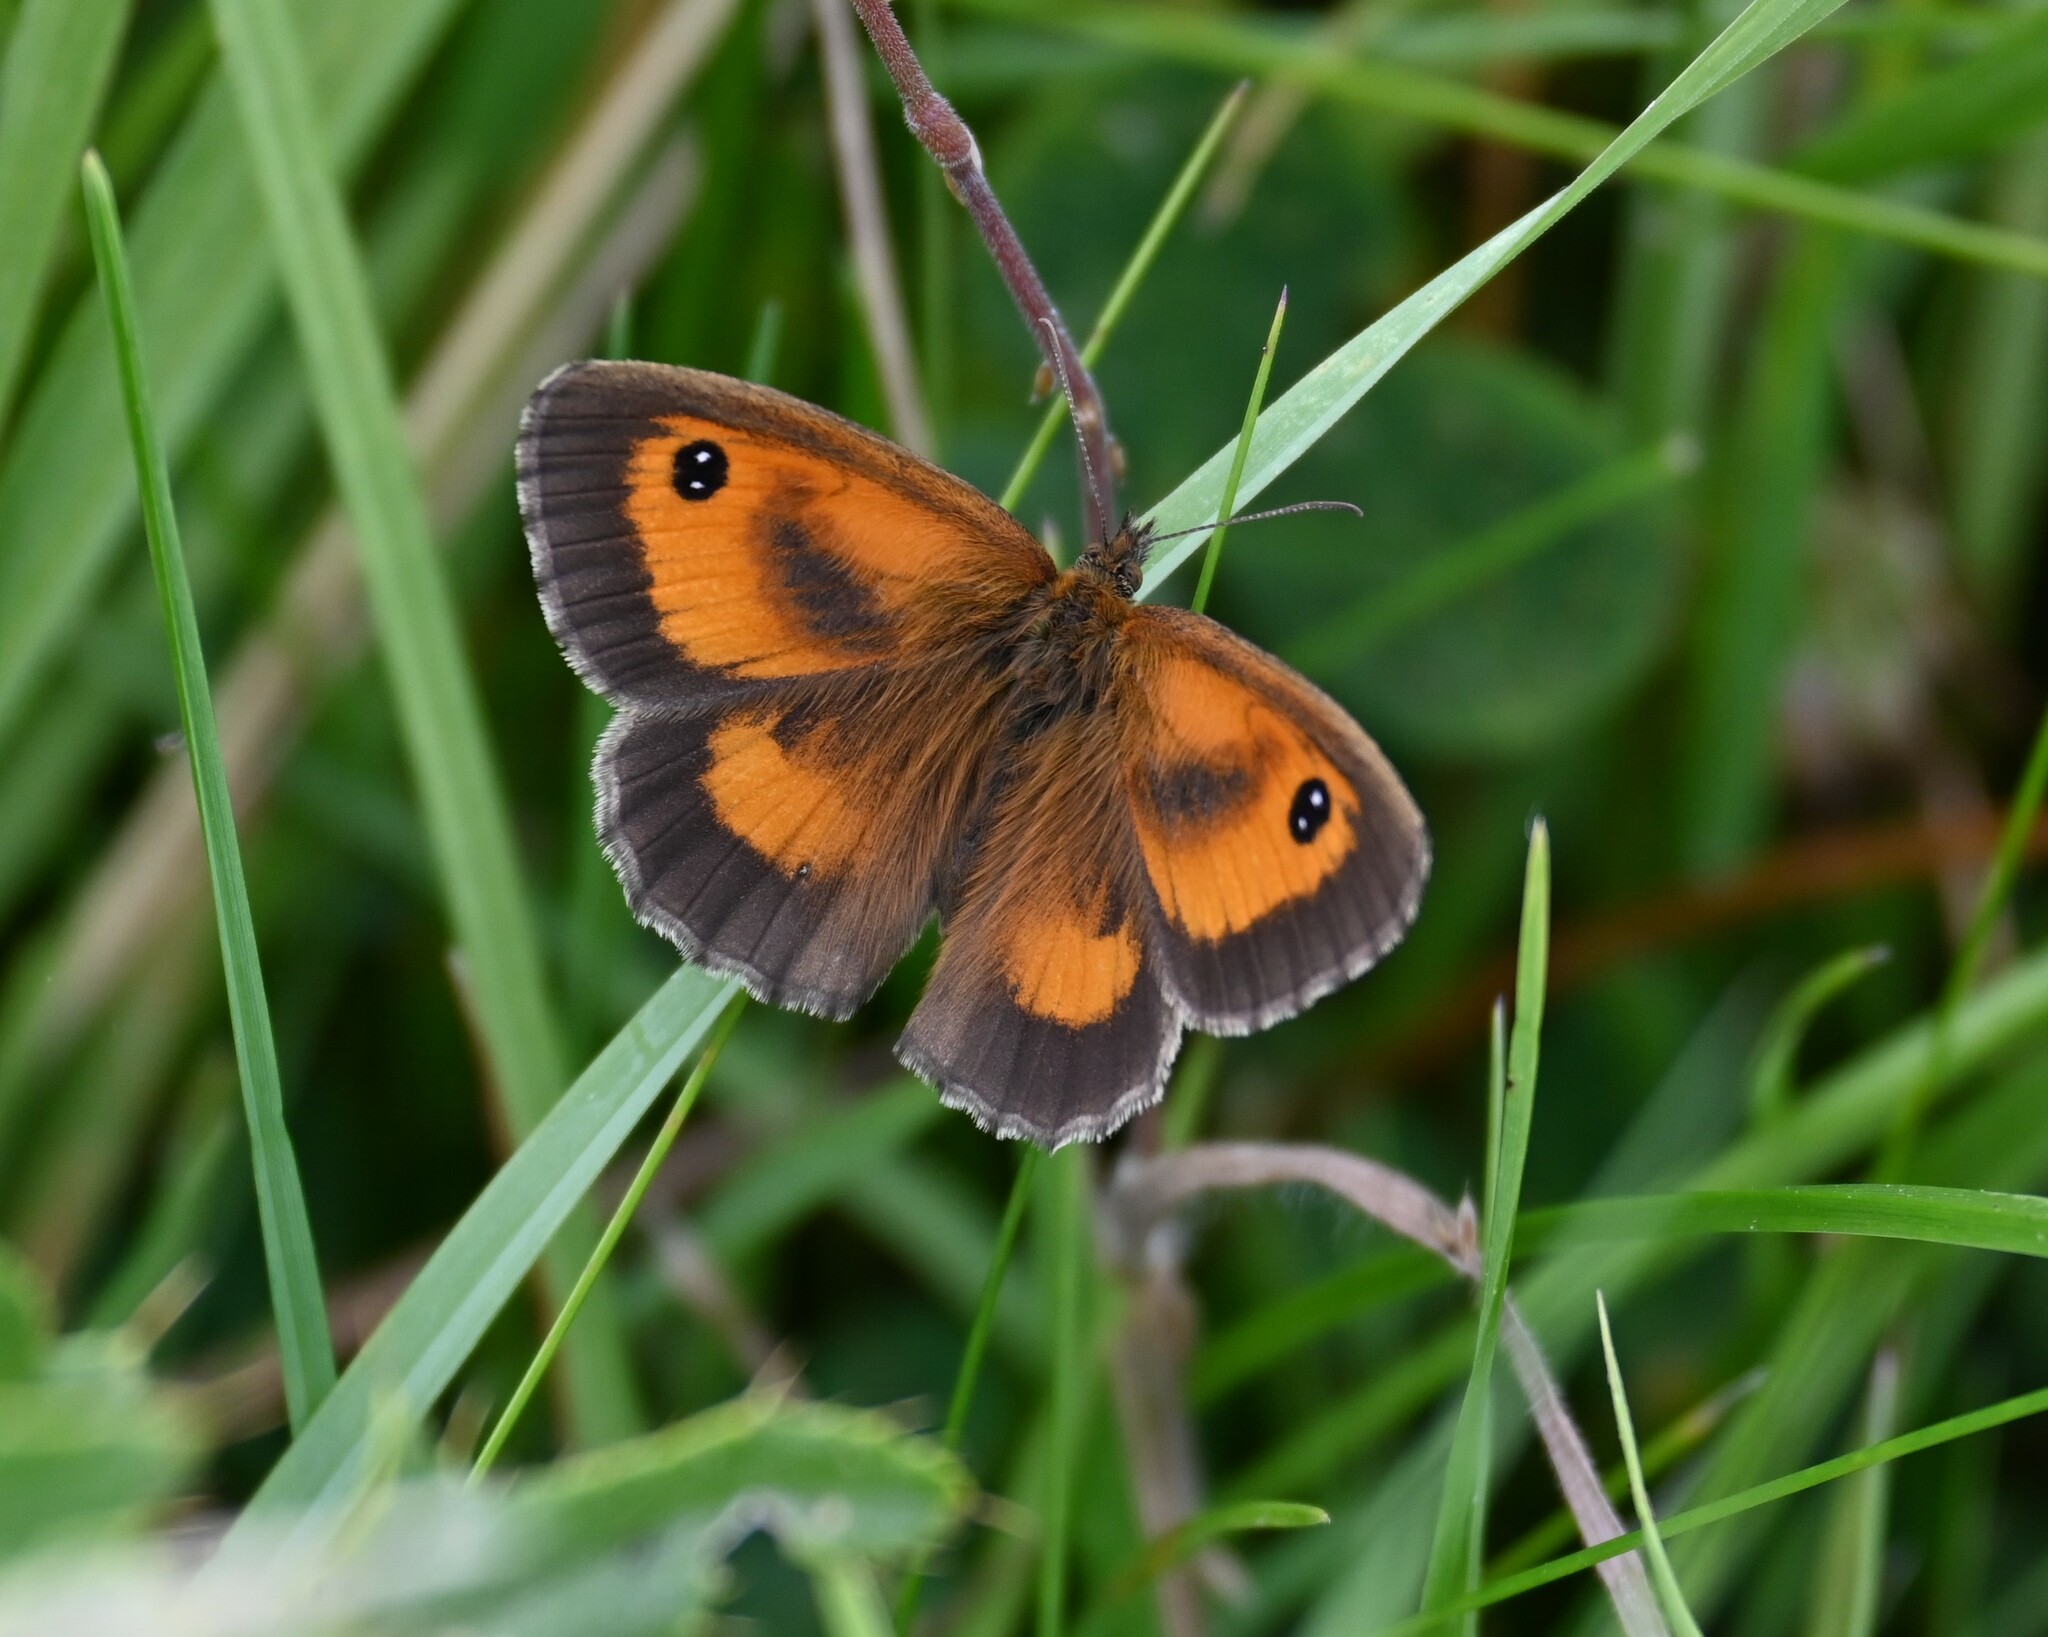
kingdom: Animalia
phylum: Arthropoda
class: Insecta
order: Lepidoptera
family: Nymphalidae
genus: Pyronia
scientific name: Pyronia tithonus
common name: Gatekeeper
